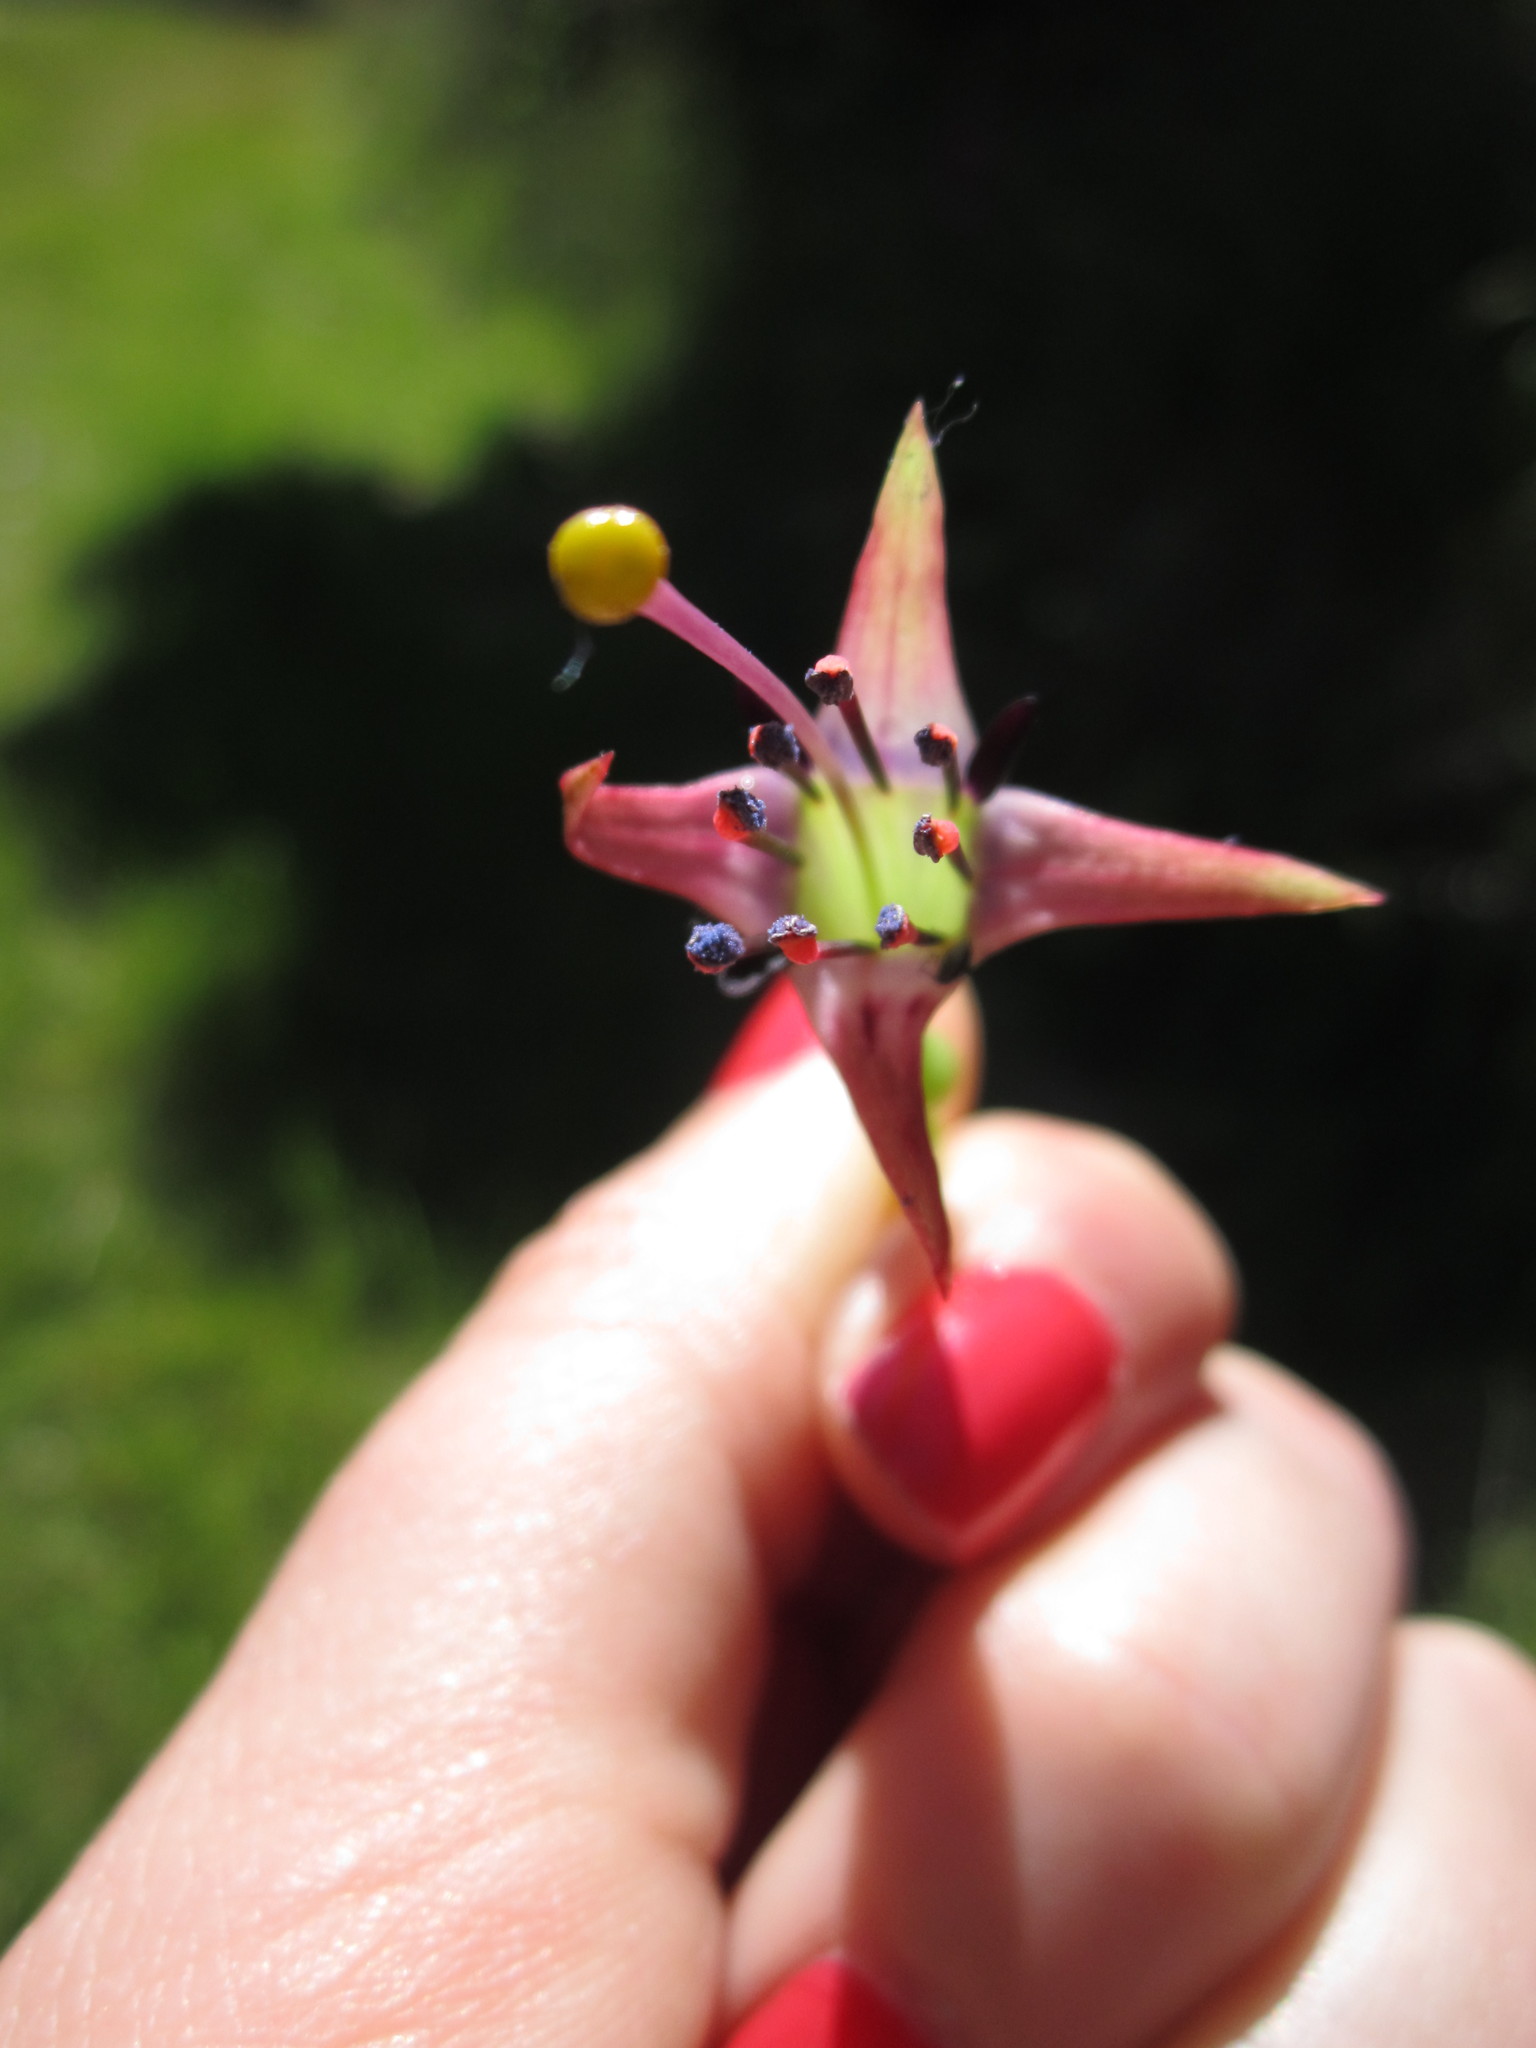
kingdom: Plantae
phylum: Tracheophyta
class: Magnoliopsida
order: Myrtales
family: Onagraceae
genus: Fuchsia
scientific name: Fuchsia excorticata
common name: Tree fuchsia
